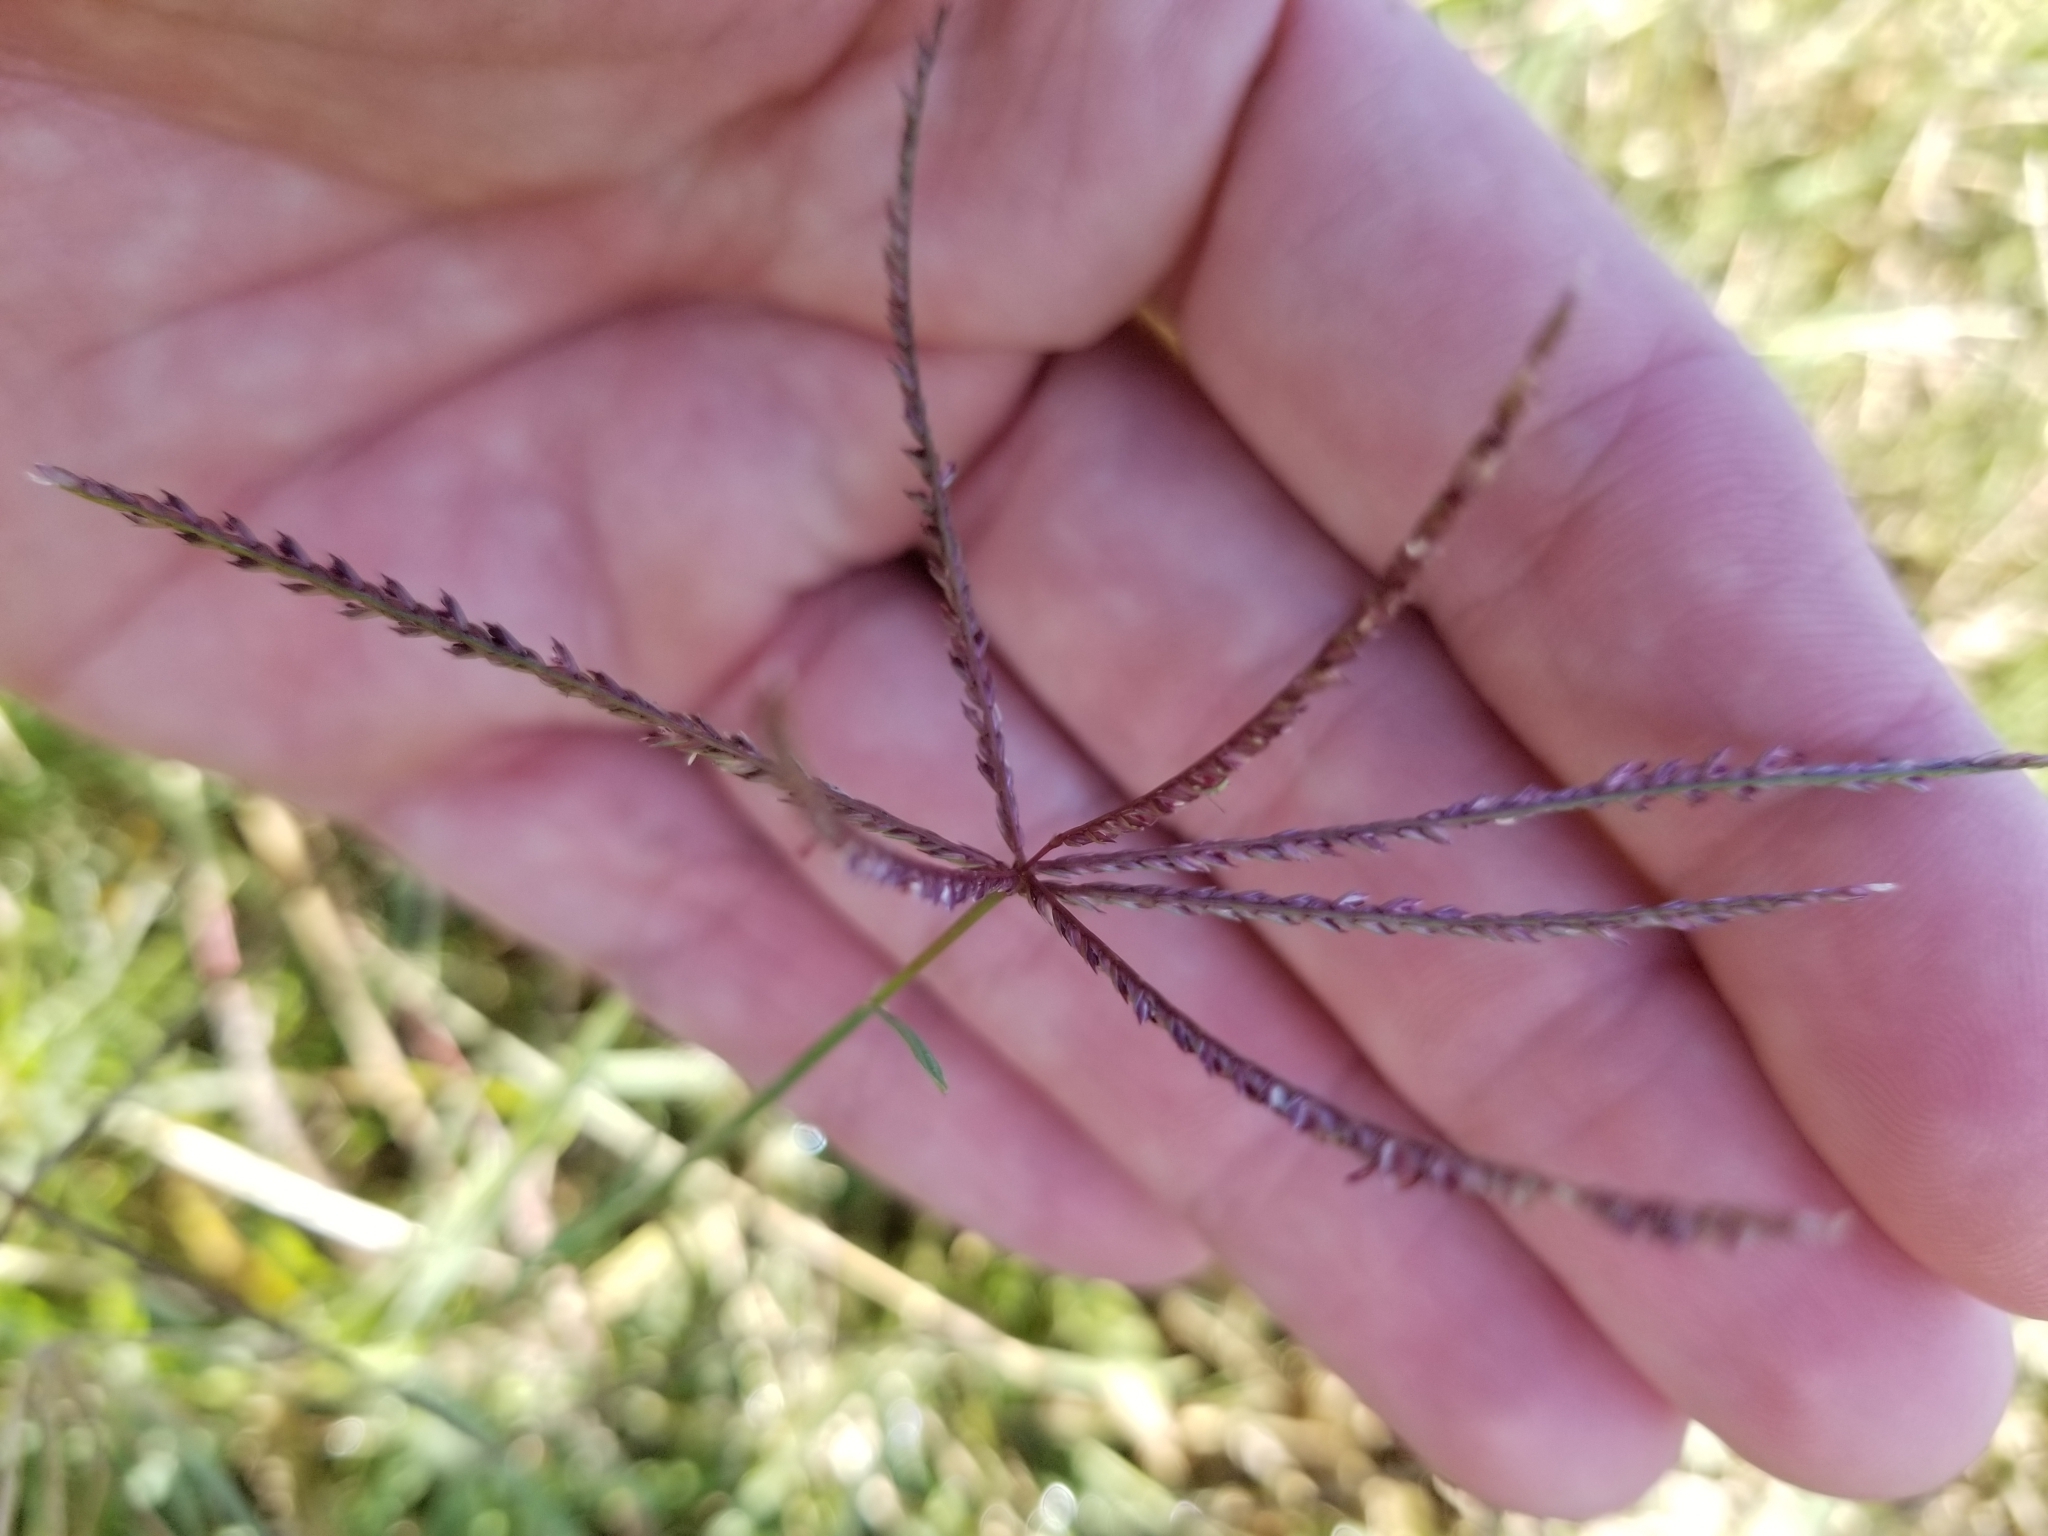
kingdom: Plantae
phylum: Tracheophyta
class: Liliopsida
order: Poales
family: Poaceae
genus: Cynodon
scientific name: Cynodon dactylon
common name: Bermuda grass
